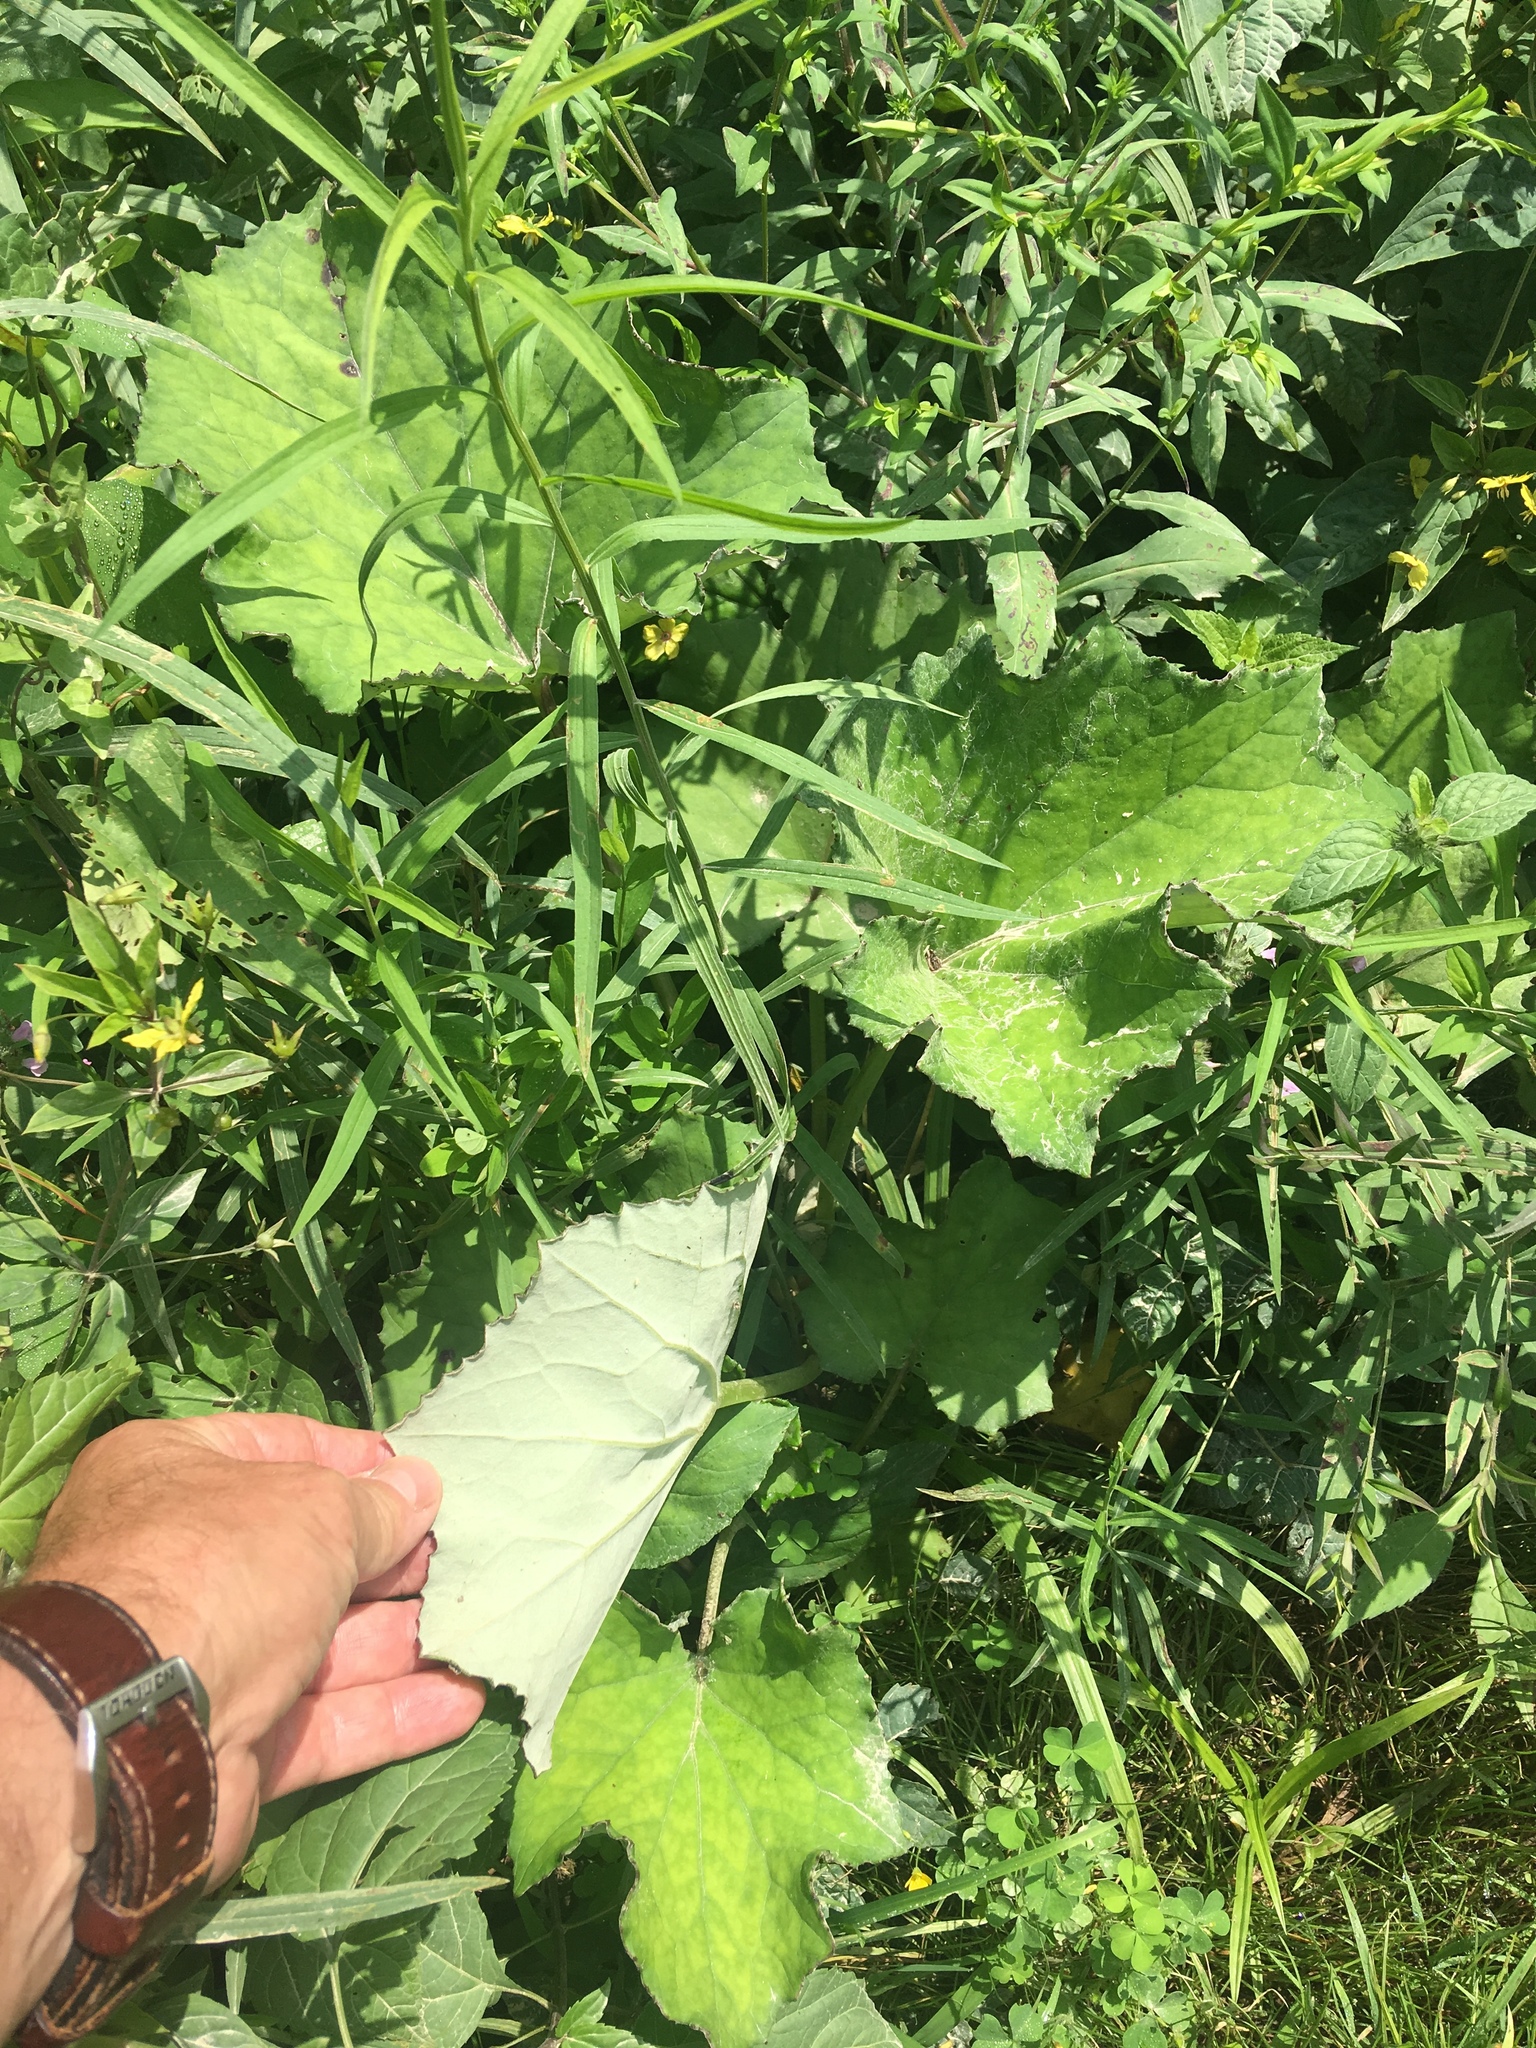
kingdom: Plantae
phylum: Tracheophyta
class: Magnoliopsida
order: Asterales
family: Asteraceae
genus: Tussilago
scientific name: Tussilago farfara
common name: Coltsfoot
